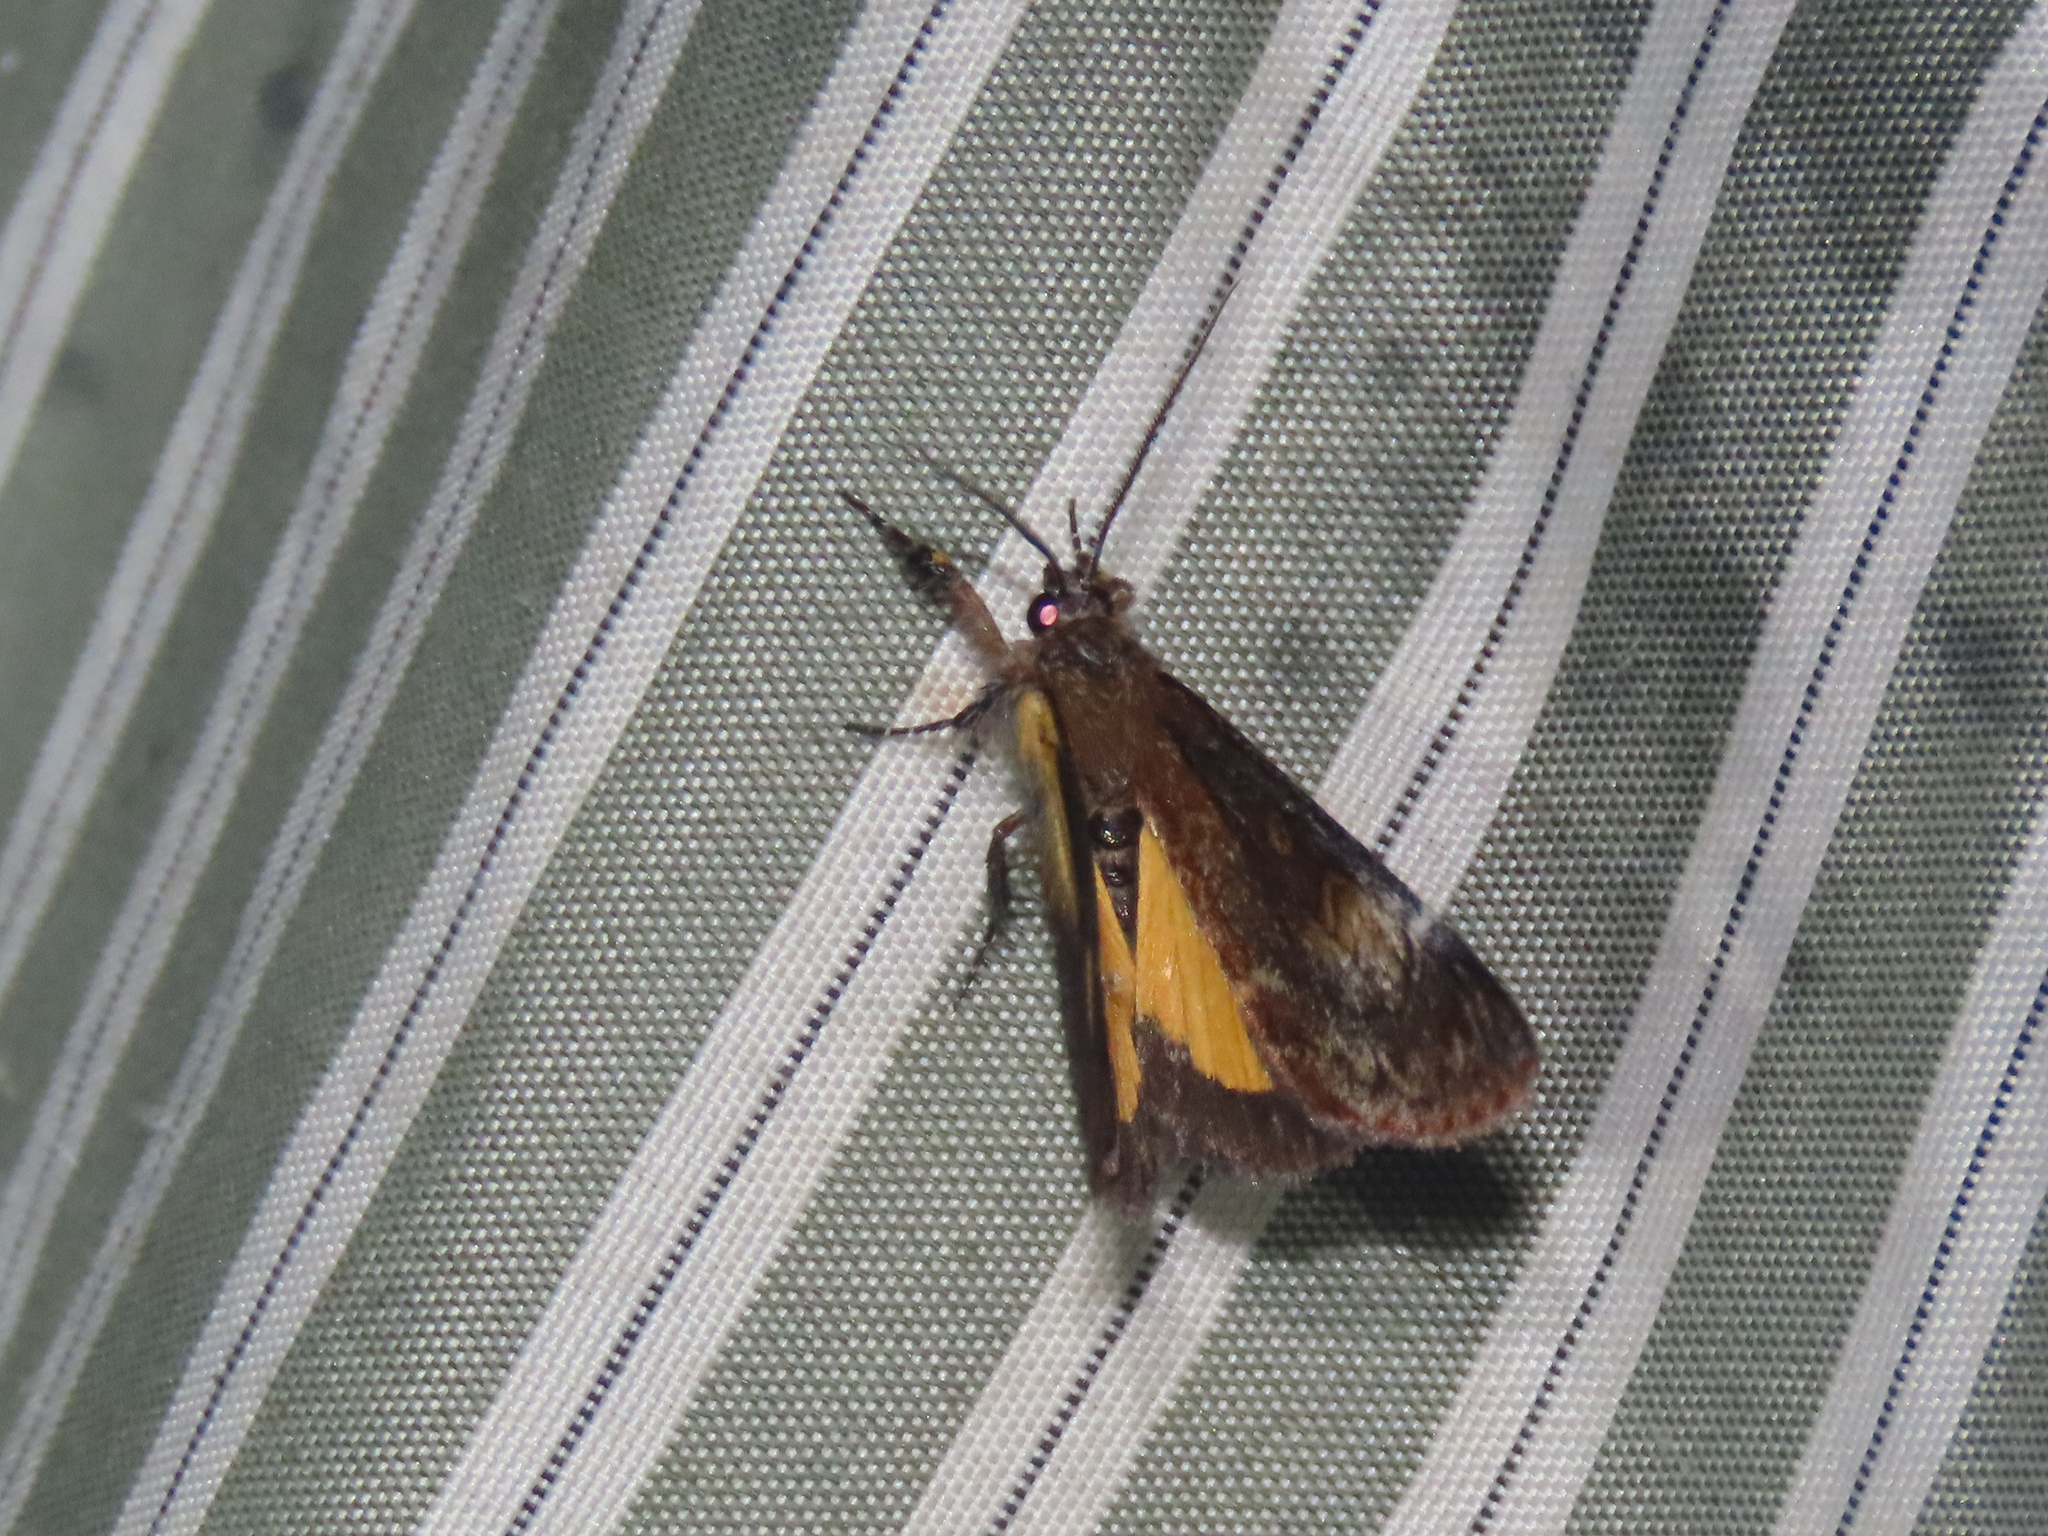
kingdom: Animalia
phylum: Arthropoda
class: Insecta
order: Lepidoptera
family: Noctuidae
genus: Gerra
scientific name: Gerra sevorsa
